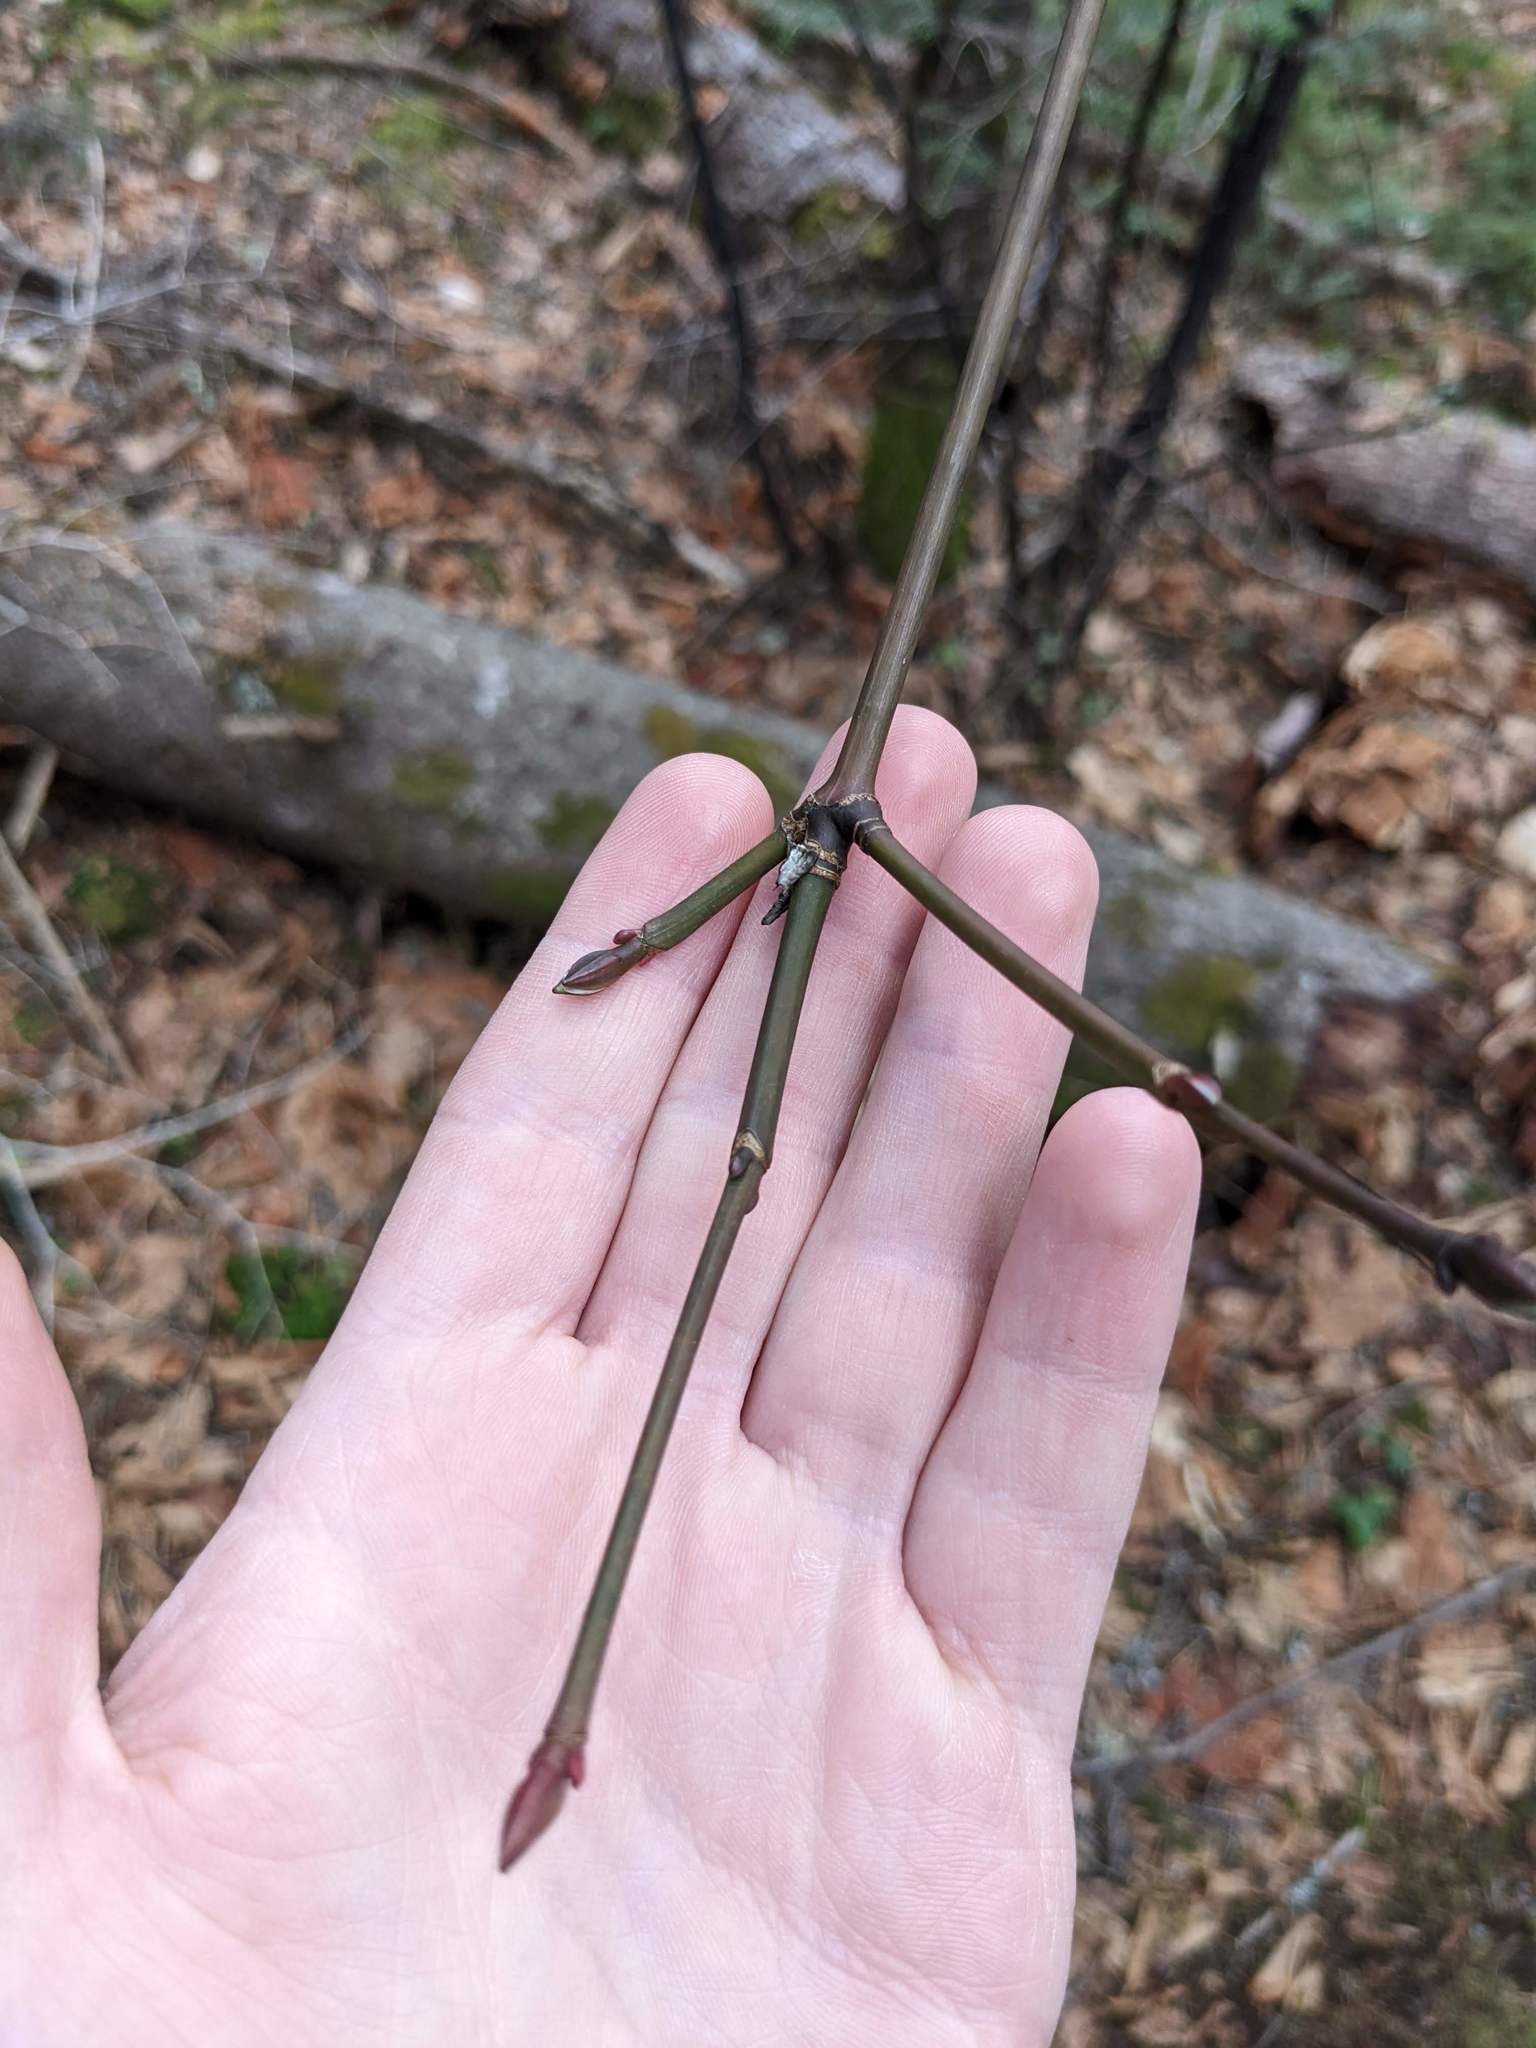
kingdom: Plantae
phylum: Tracheophyta
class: Magnoliopsida
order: Sapindales
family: Sapindaceae
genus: Acer
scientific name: Acer pensylvanicum
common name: Moosewood
